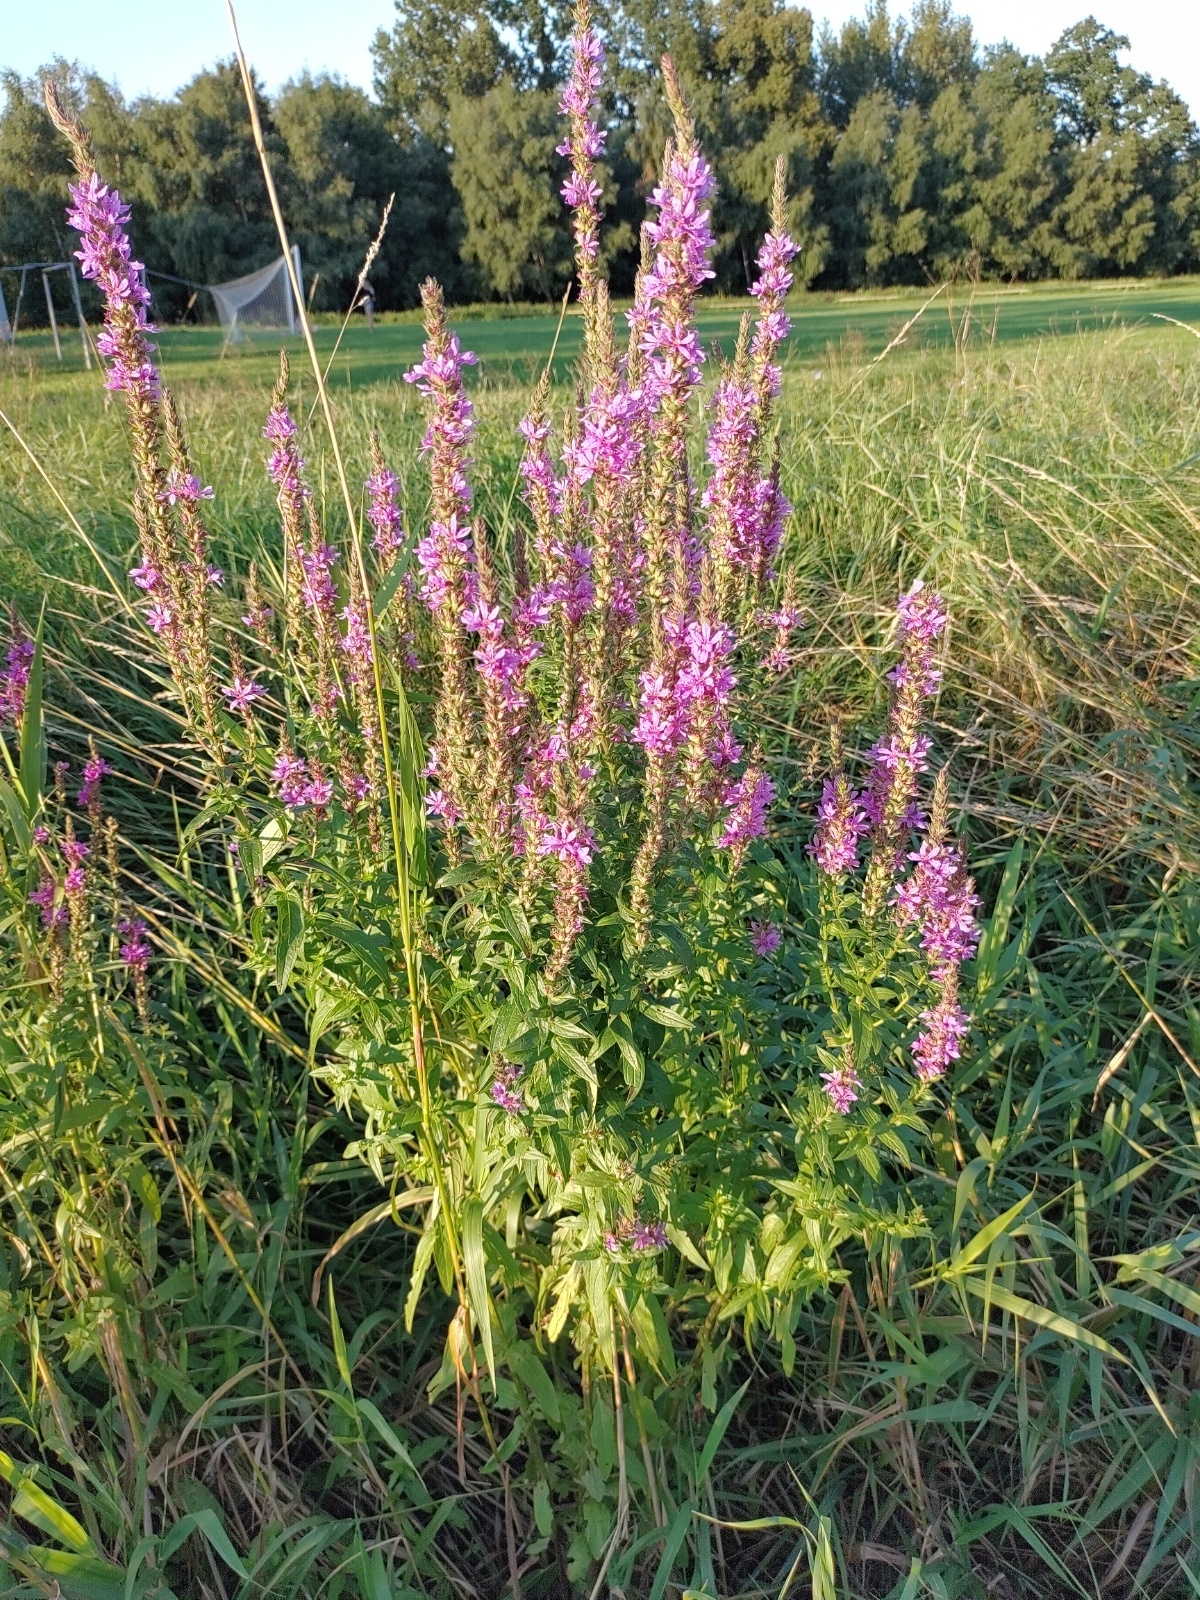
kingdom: Plantae
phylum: Tracheophyta
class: Magnoliopsida
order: Myrtales
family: Lythraceae
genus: Lythrum
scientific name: Lythrum salicaria
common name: Purple loosestrife
